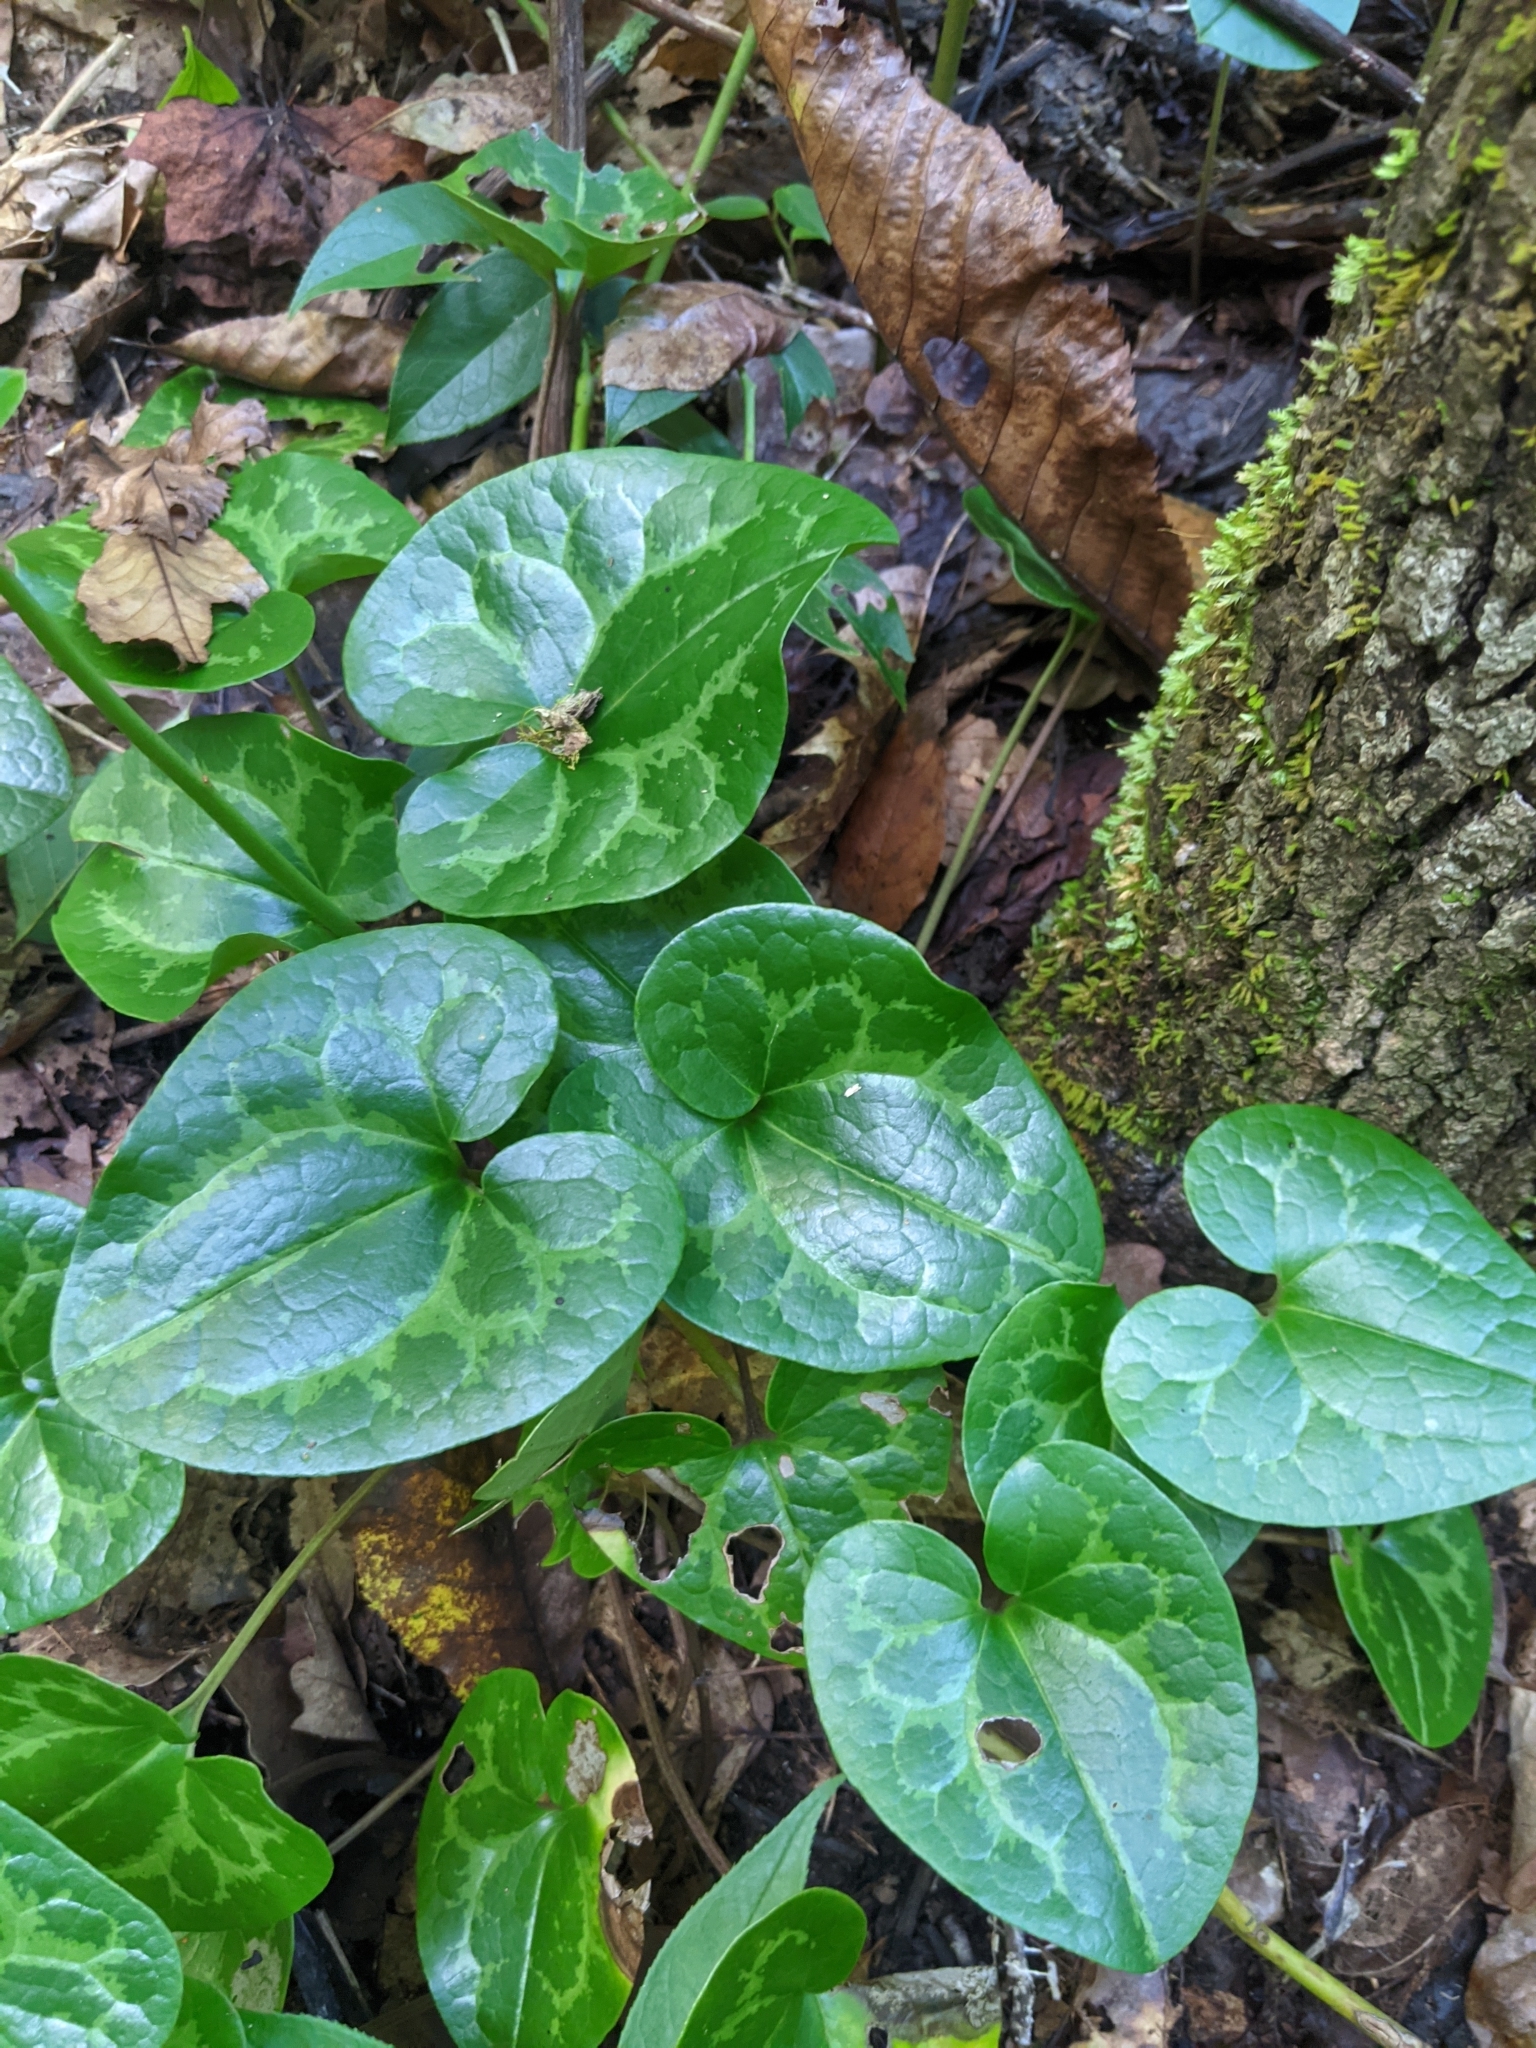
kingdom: Plantae
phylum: Tracheophyta
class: Magnoliopsida
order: Piperales
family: Aristolochiaceae
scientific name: Aristolochiaceae
